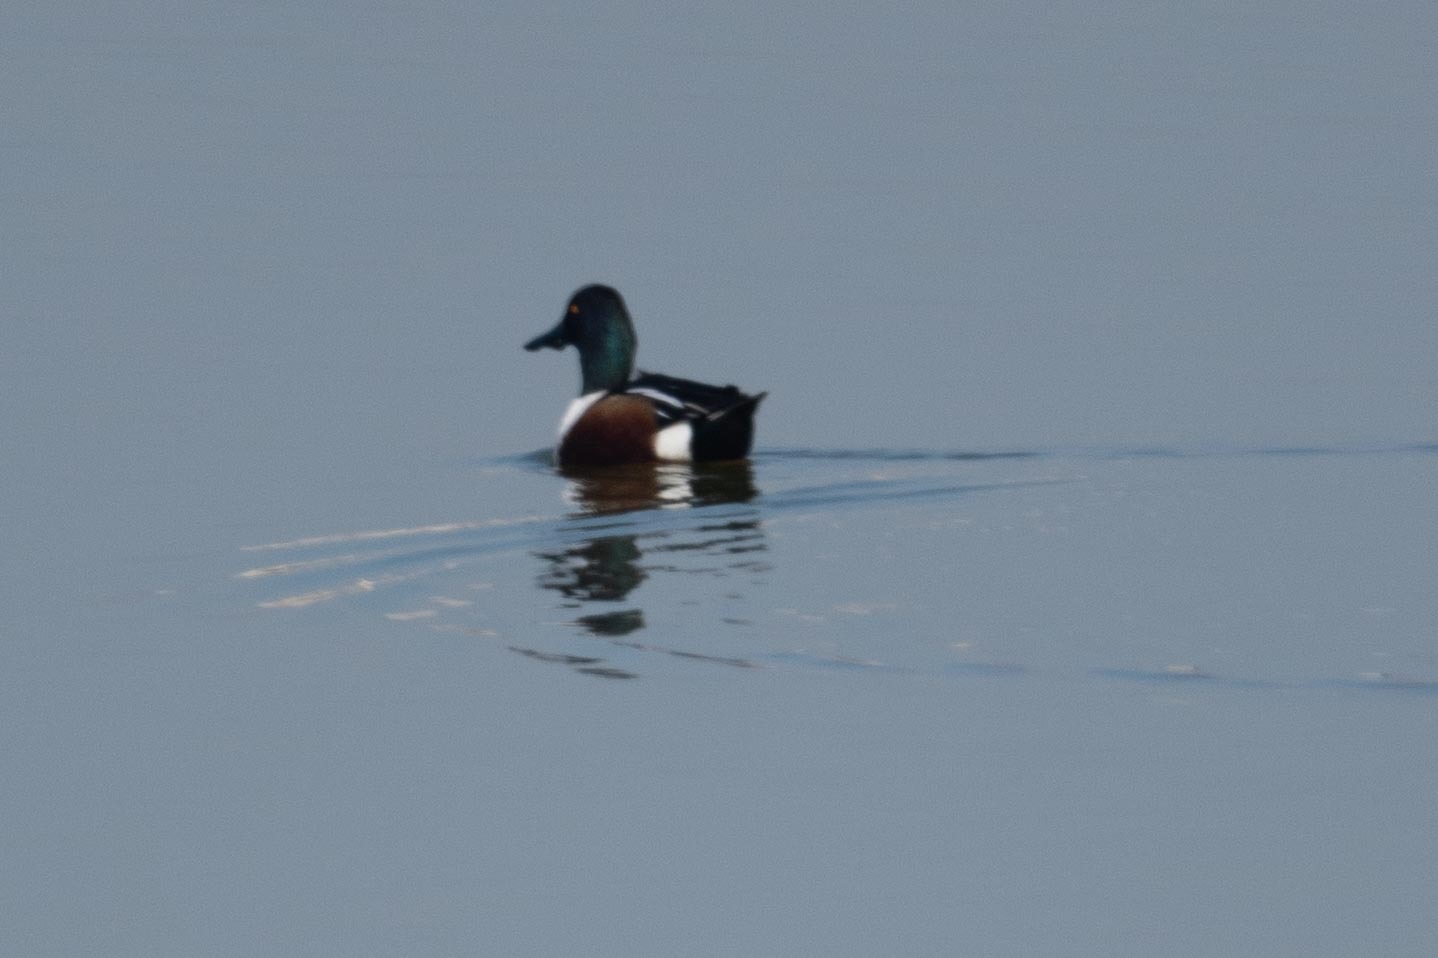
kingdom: Animalia
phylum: Chordata
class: Aves
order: Anseriformes
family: Anatidae
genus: Spatula
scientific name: Spatula clypeata
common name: Northern shoveler
